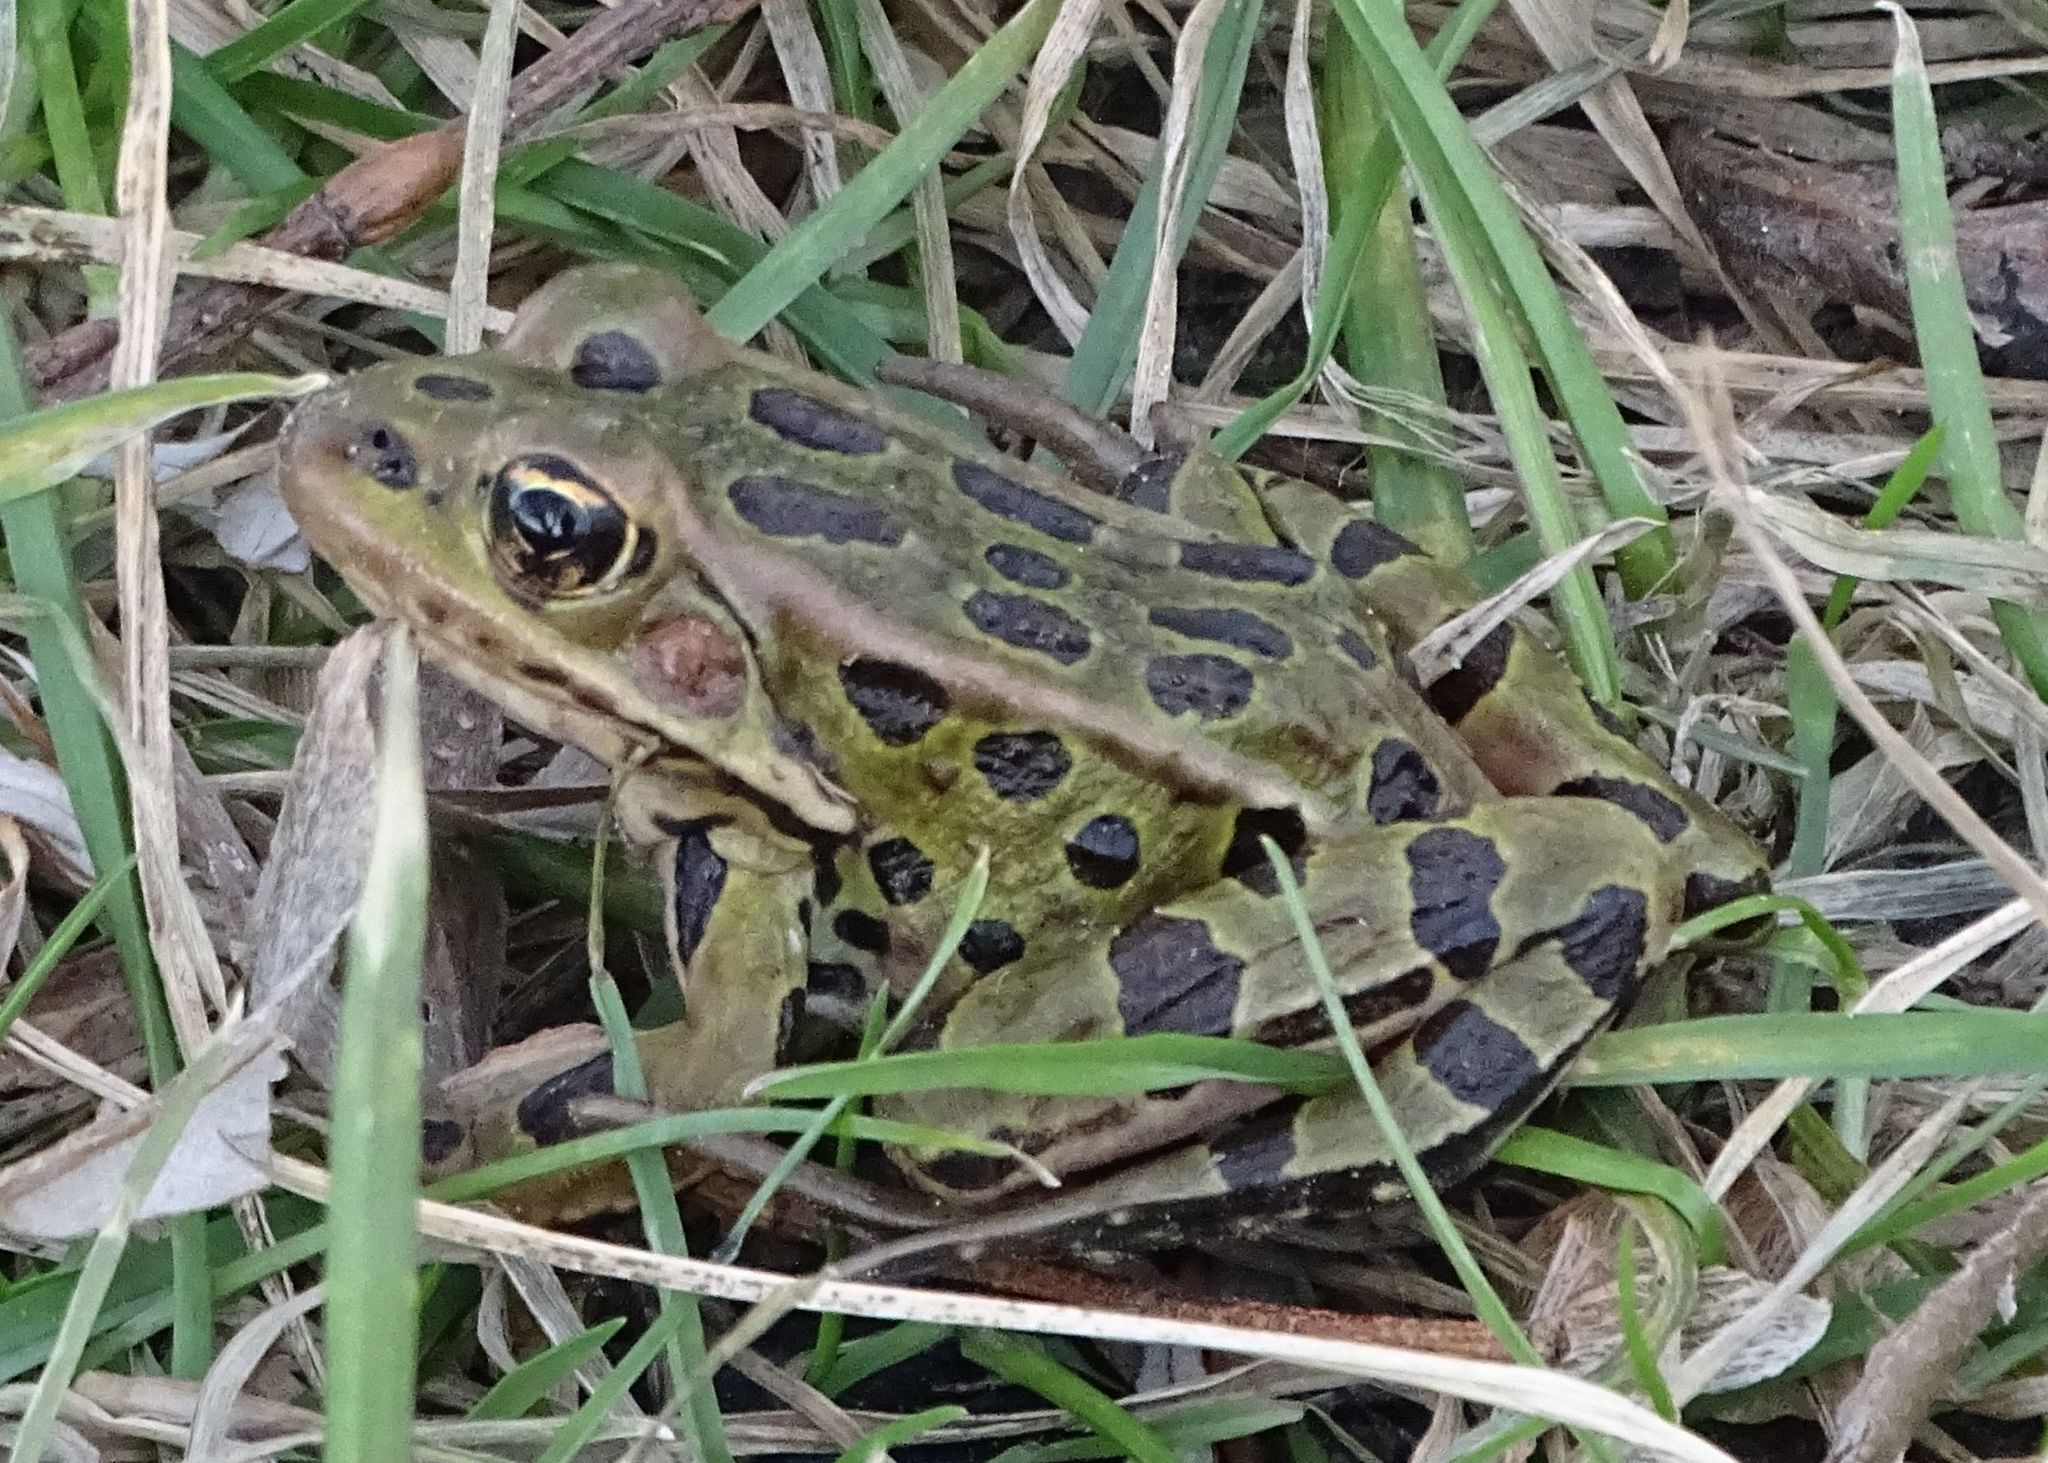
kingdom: Animalia
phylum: Chordata
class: Amphibia
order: Anura
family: Ranidae
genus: Lithobates
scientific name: Lithobates pipiens
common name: Northern leopard frog
